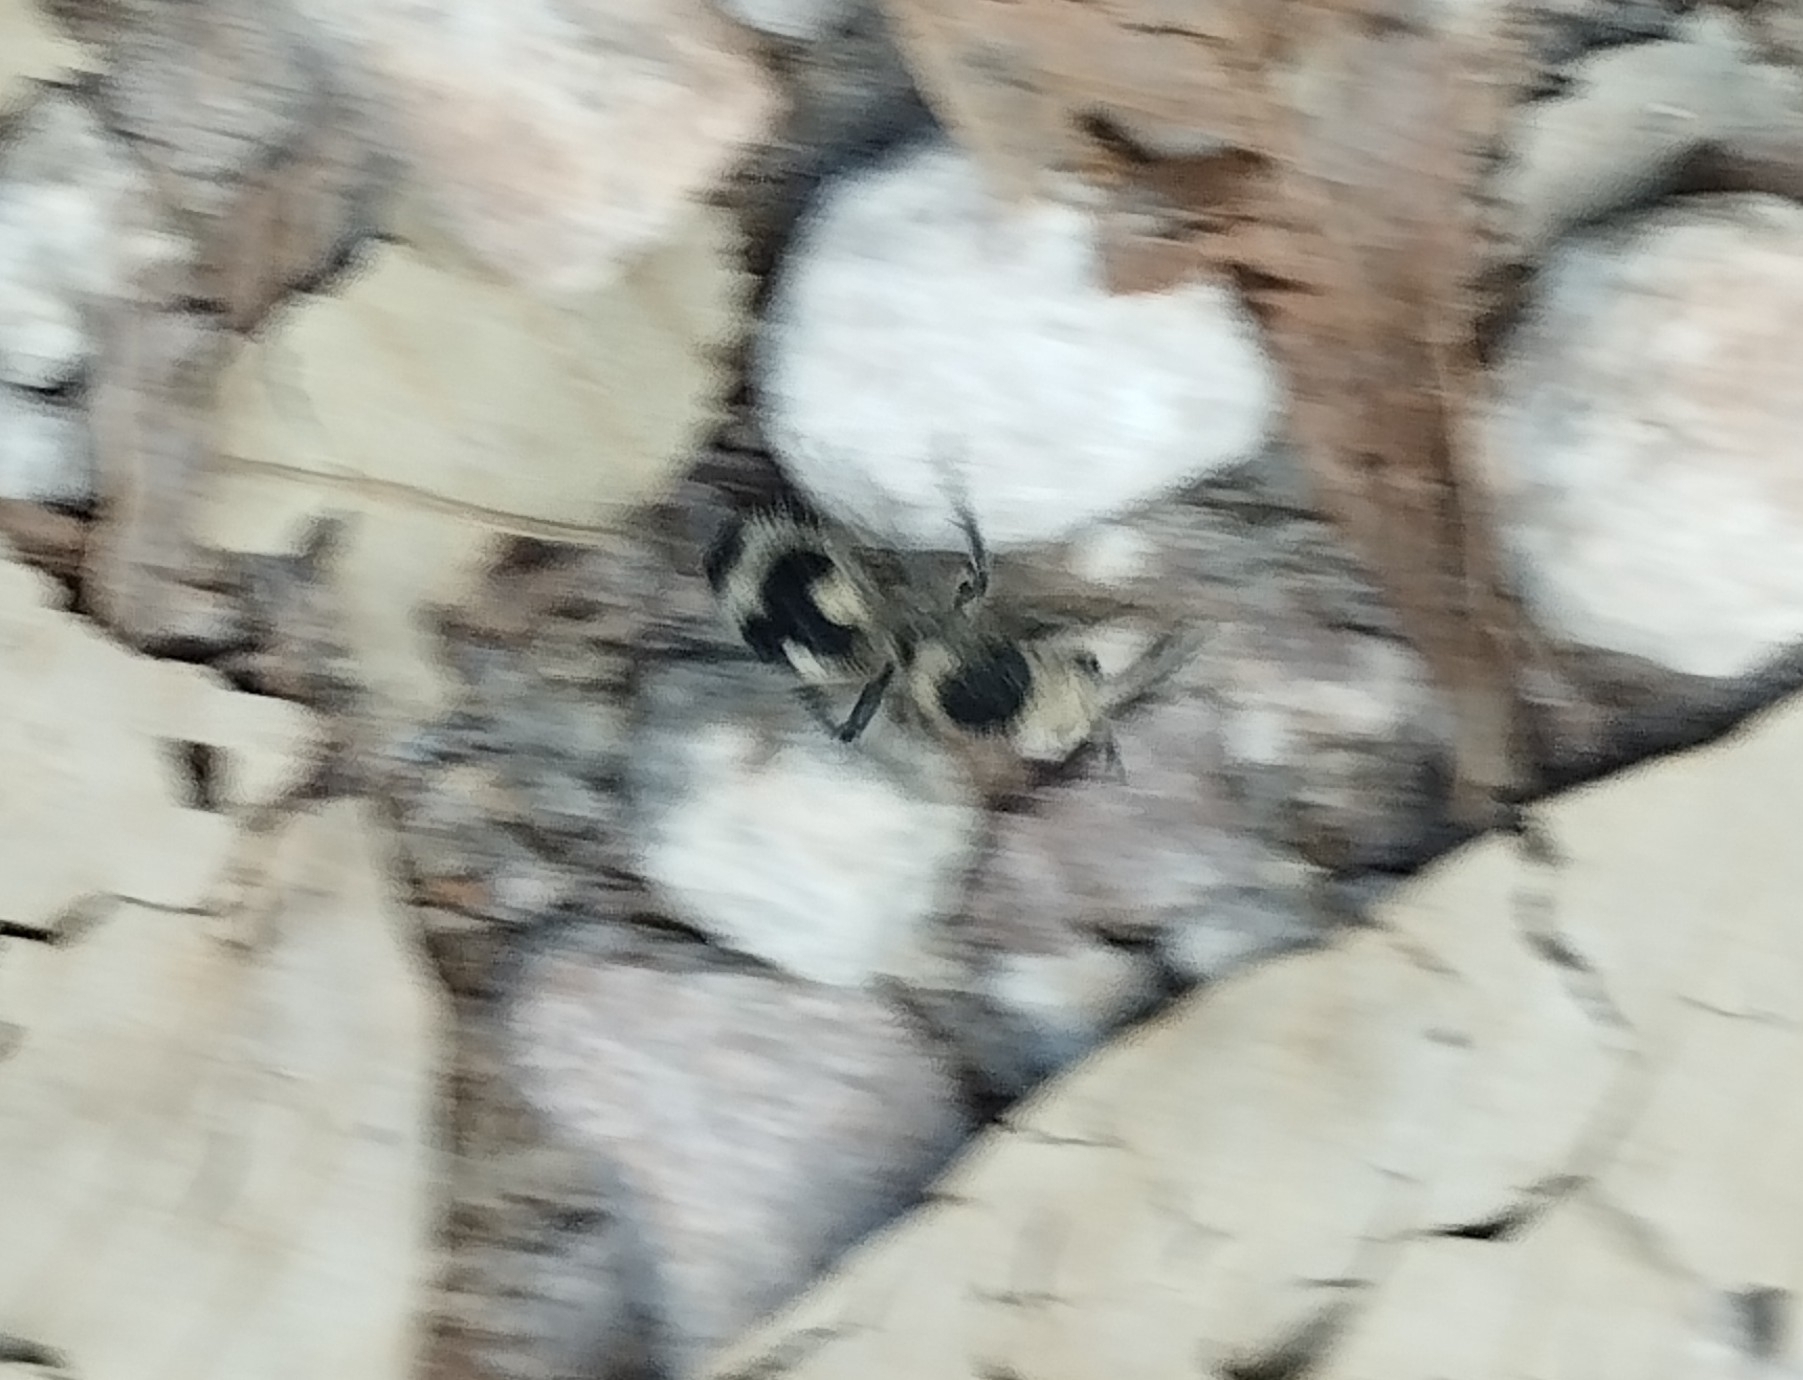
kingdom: Animalia
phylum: Arthropoda
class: Insecta
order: Hymenoptera
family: Mutillidae
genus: Dasymutilla
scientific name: Dasymutilla
